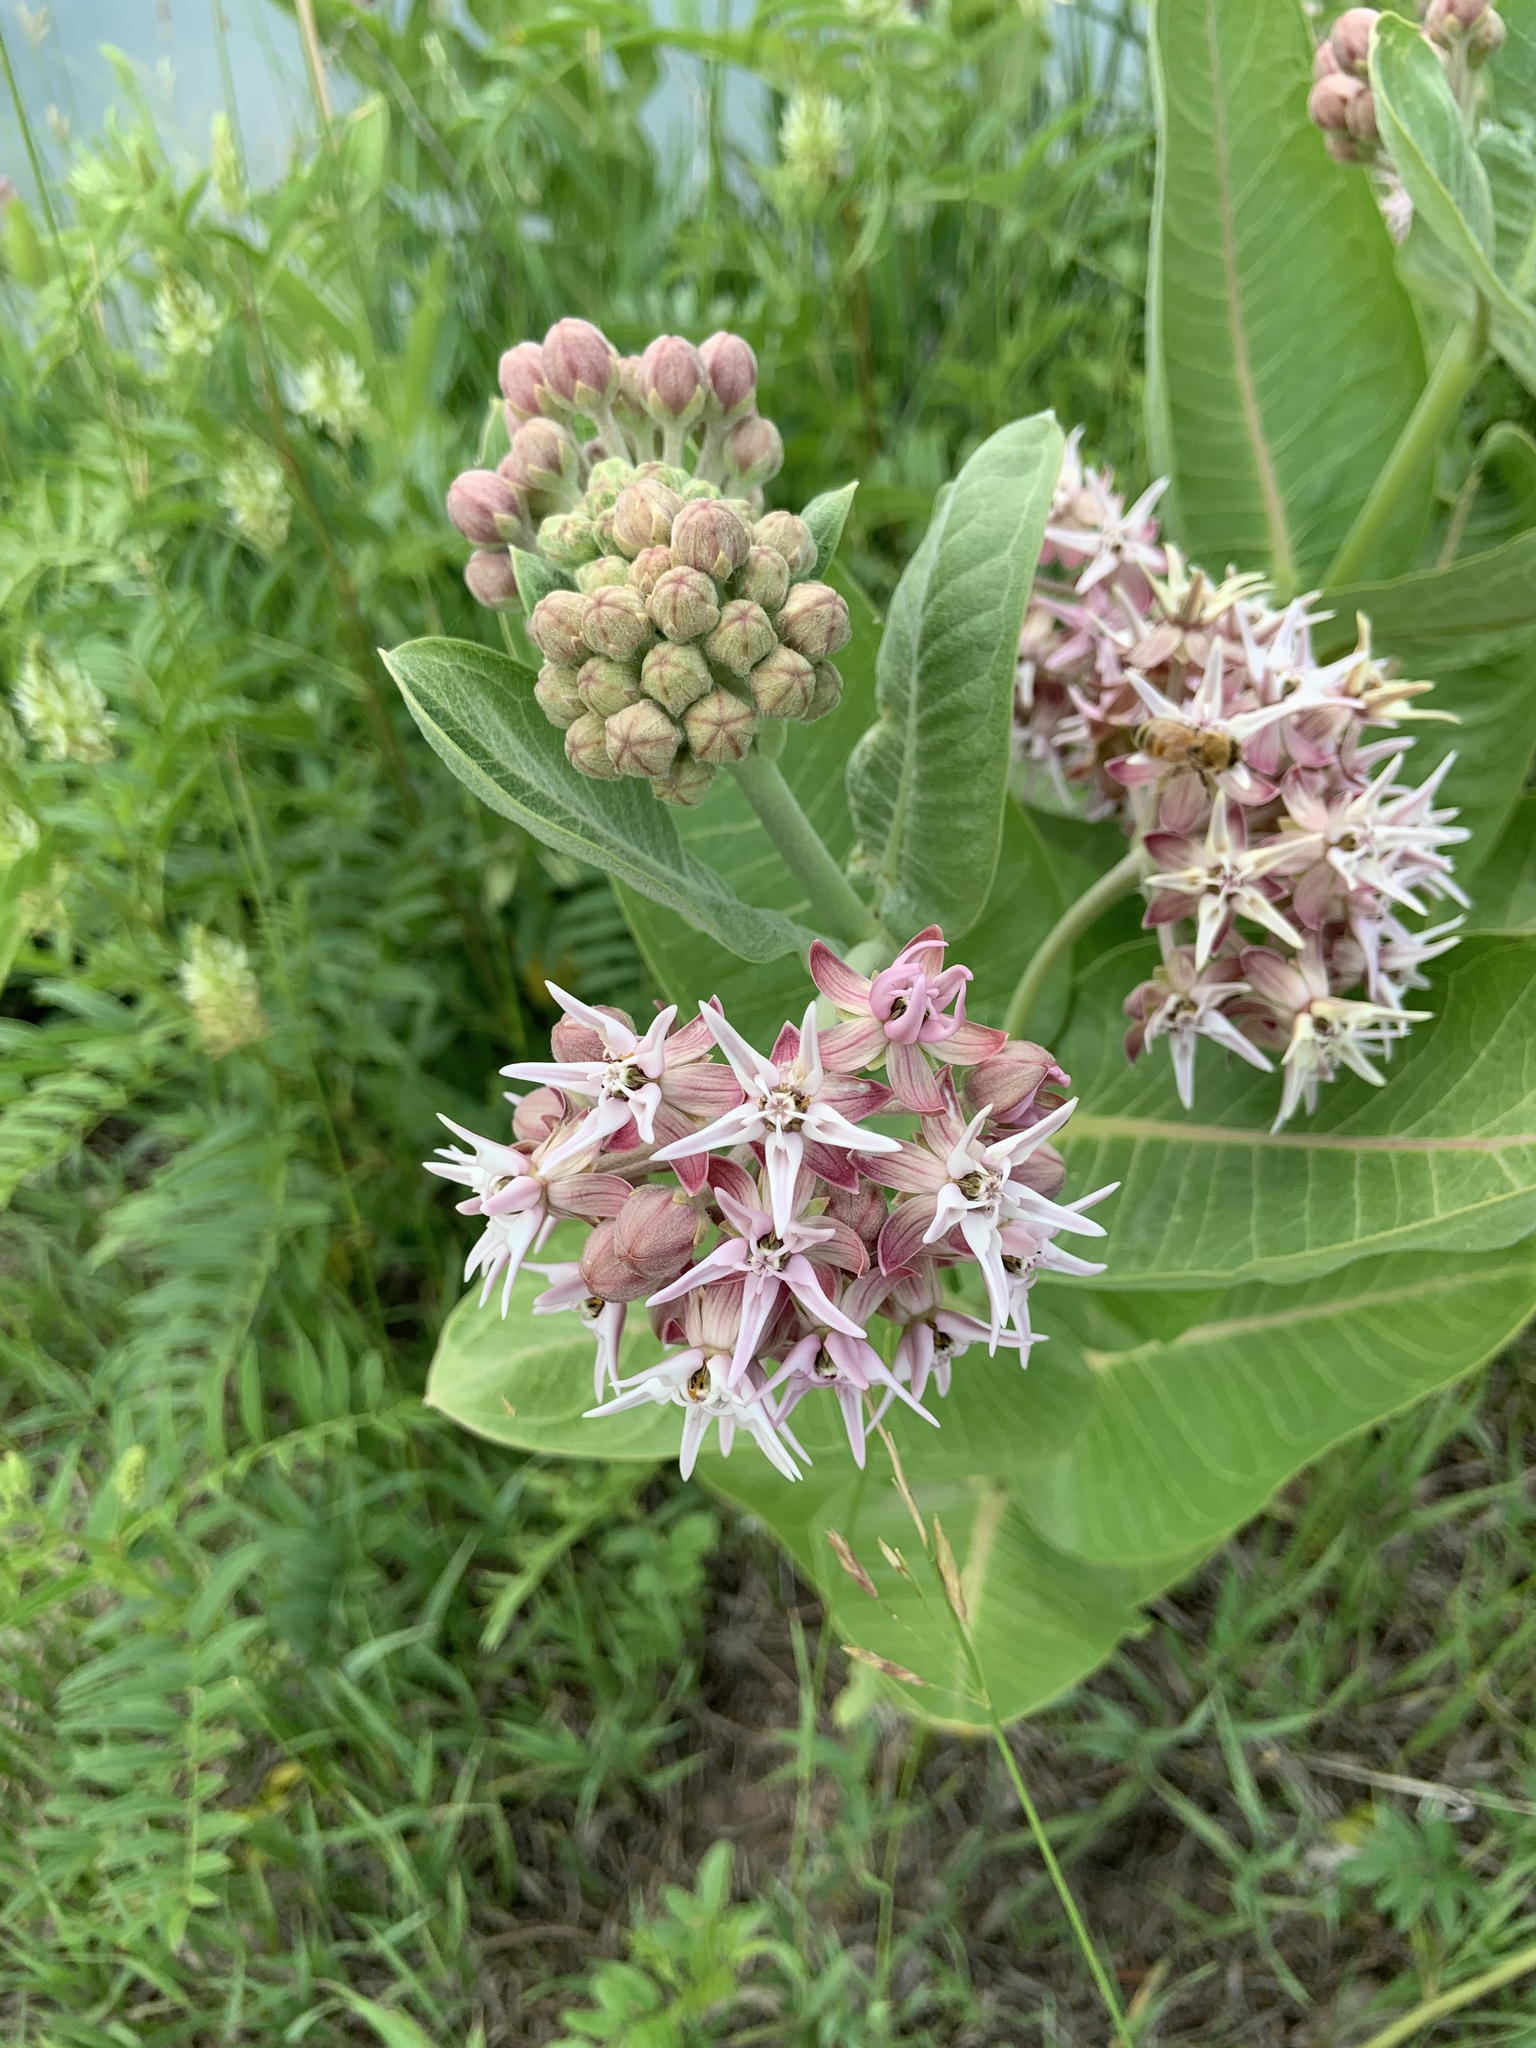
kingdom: Plantae
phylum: Tracheophyta
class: Magnoliopsida
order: Gentianales
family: Apocynaceae
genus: Asclepias
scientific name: Asclepias speciosa
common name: Showy milkweed
